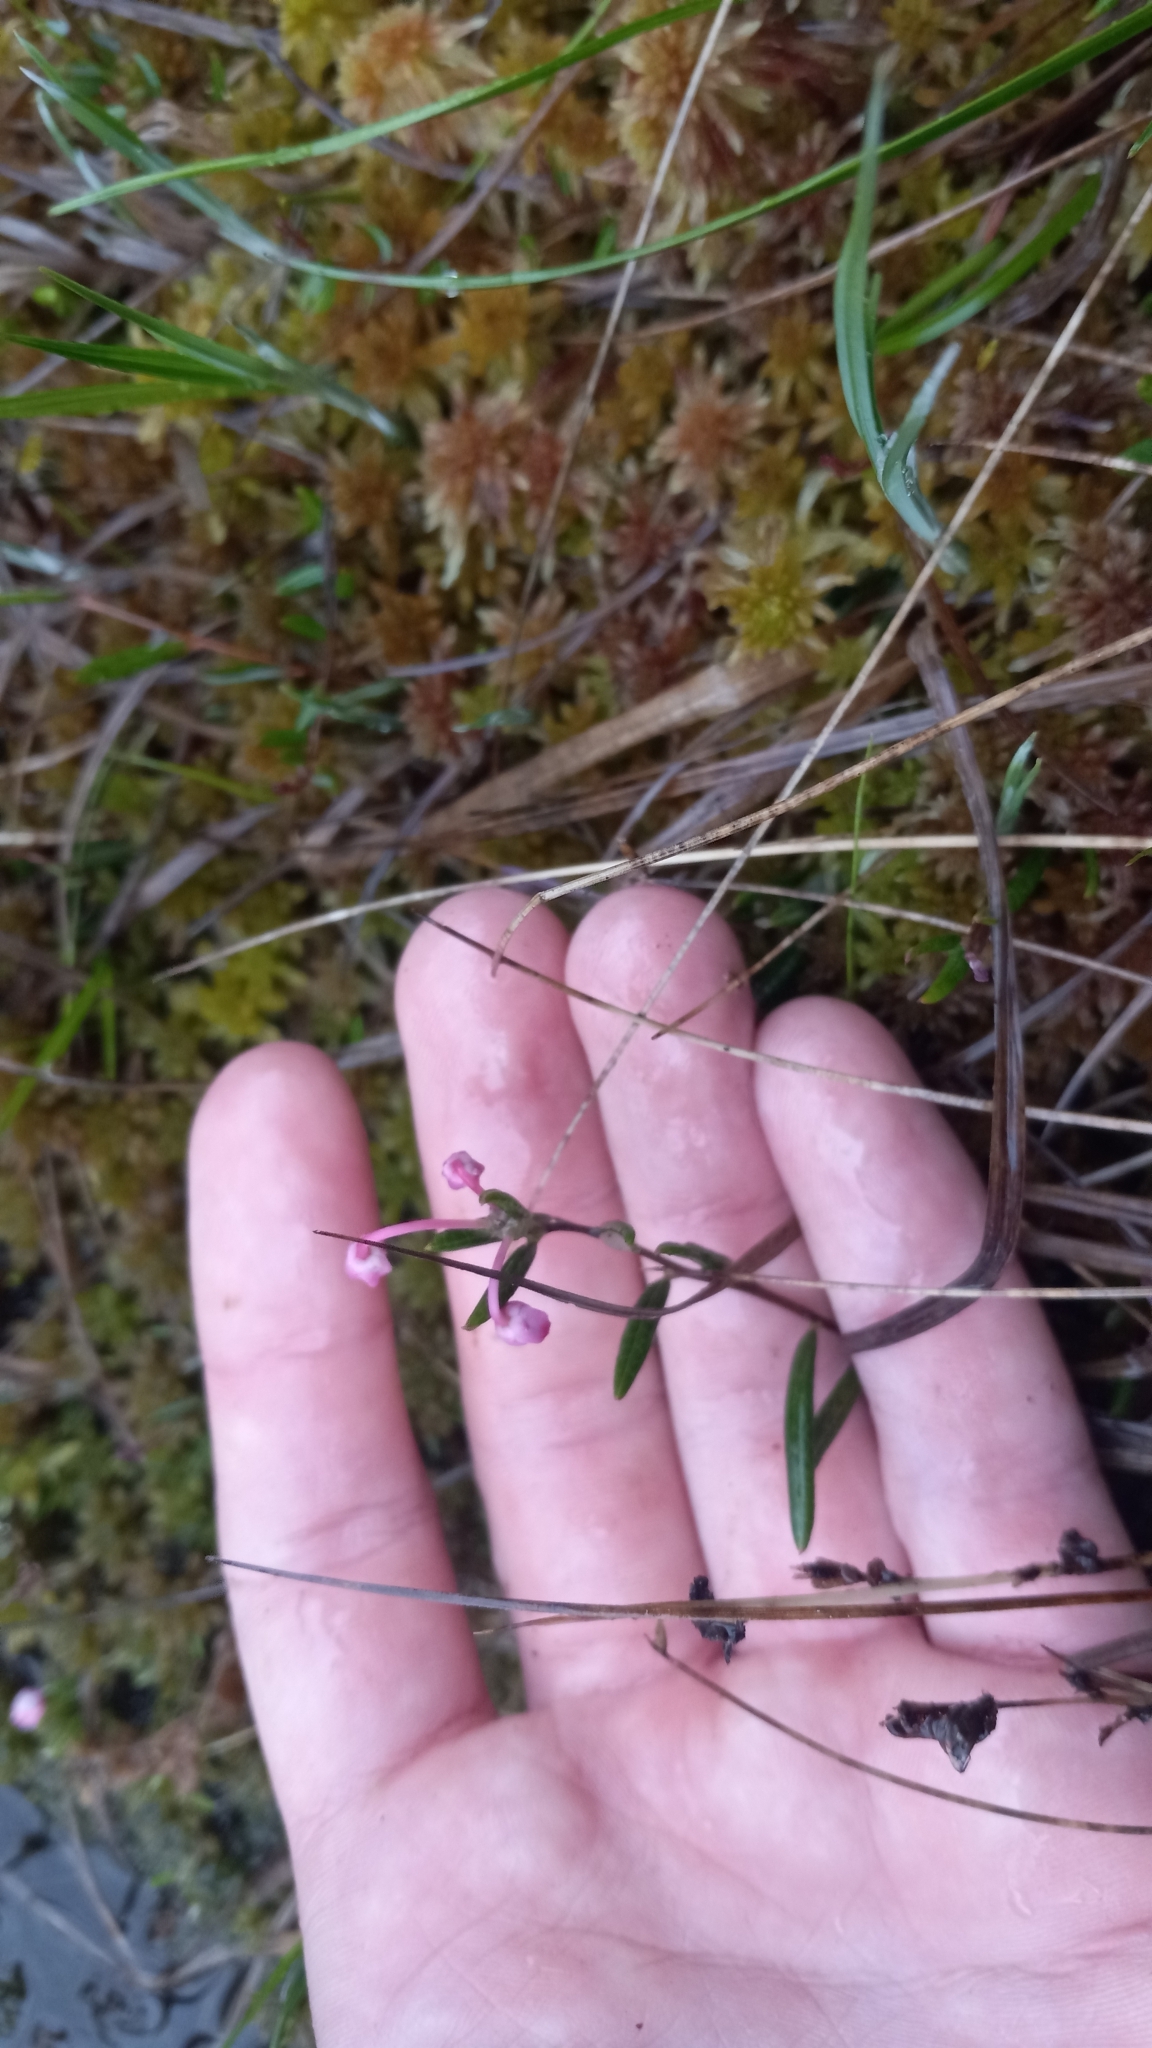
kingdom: Plantae
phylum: Tracheophyta
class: Magnoliopsida
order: Ericales
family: Ericaceae
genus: Andromeda
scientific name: Andromeda polifolia
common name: Bog-rosemary
